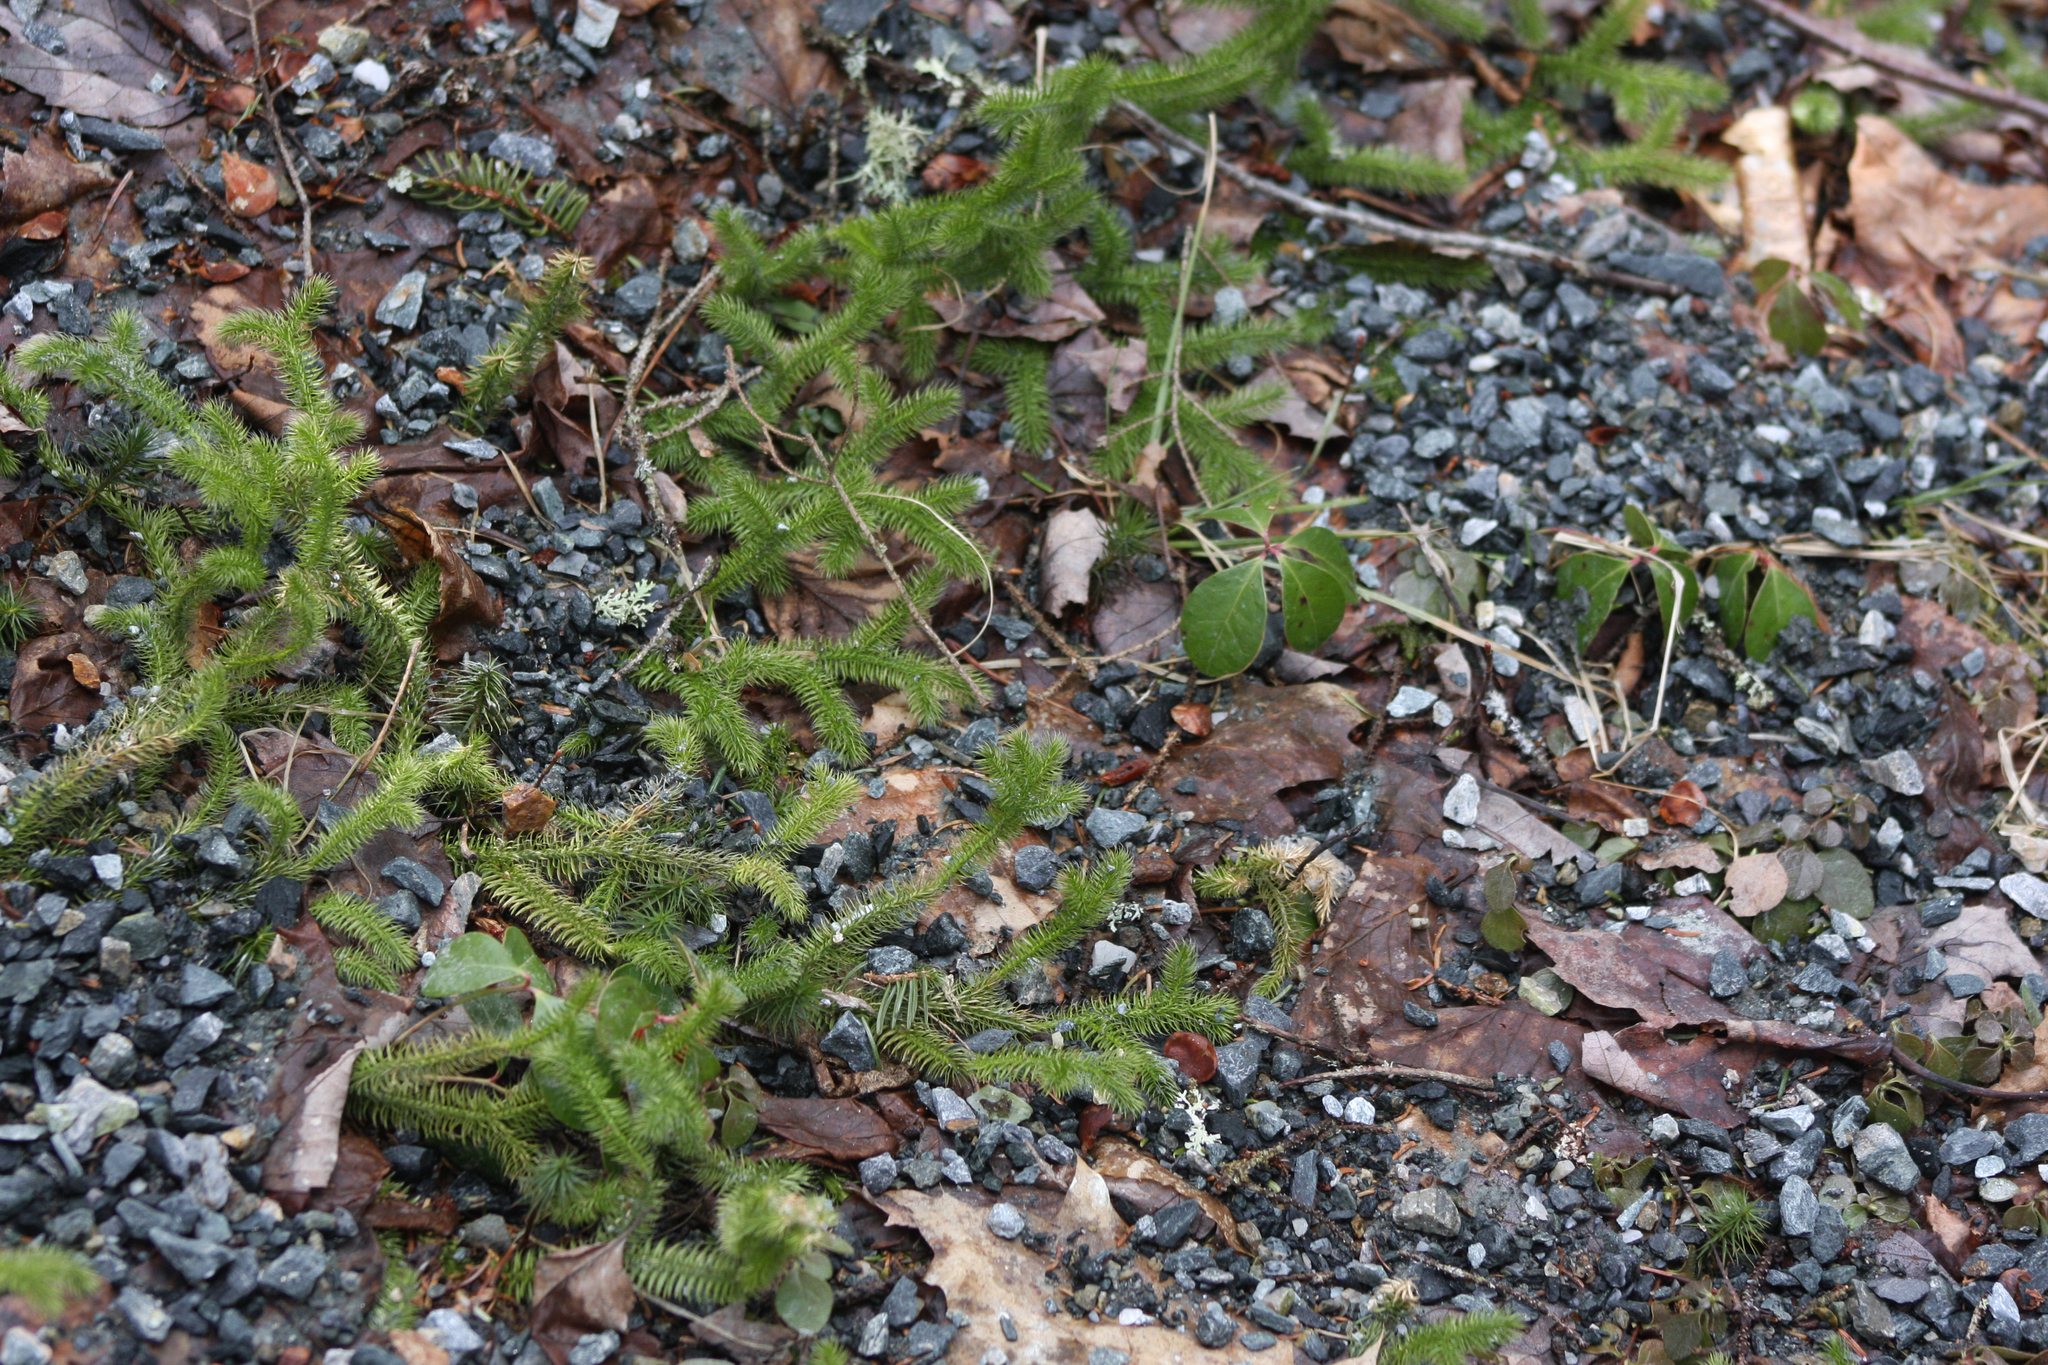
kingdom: Plantae
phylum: Tracheophyta
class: Lycopodiopsida
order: Lycopodiales
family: Lycopodiaceae
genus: Lycopodium
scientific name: Lycopodium clavatum
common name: Stag's-horn clubmoss
